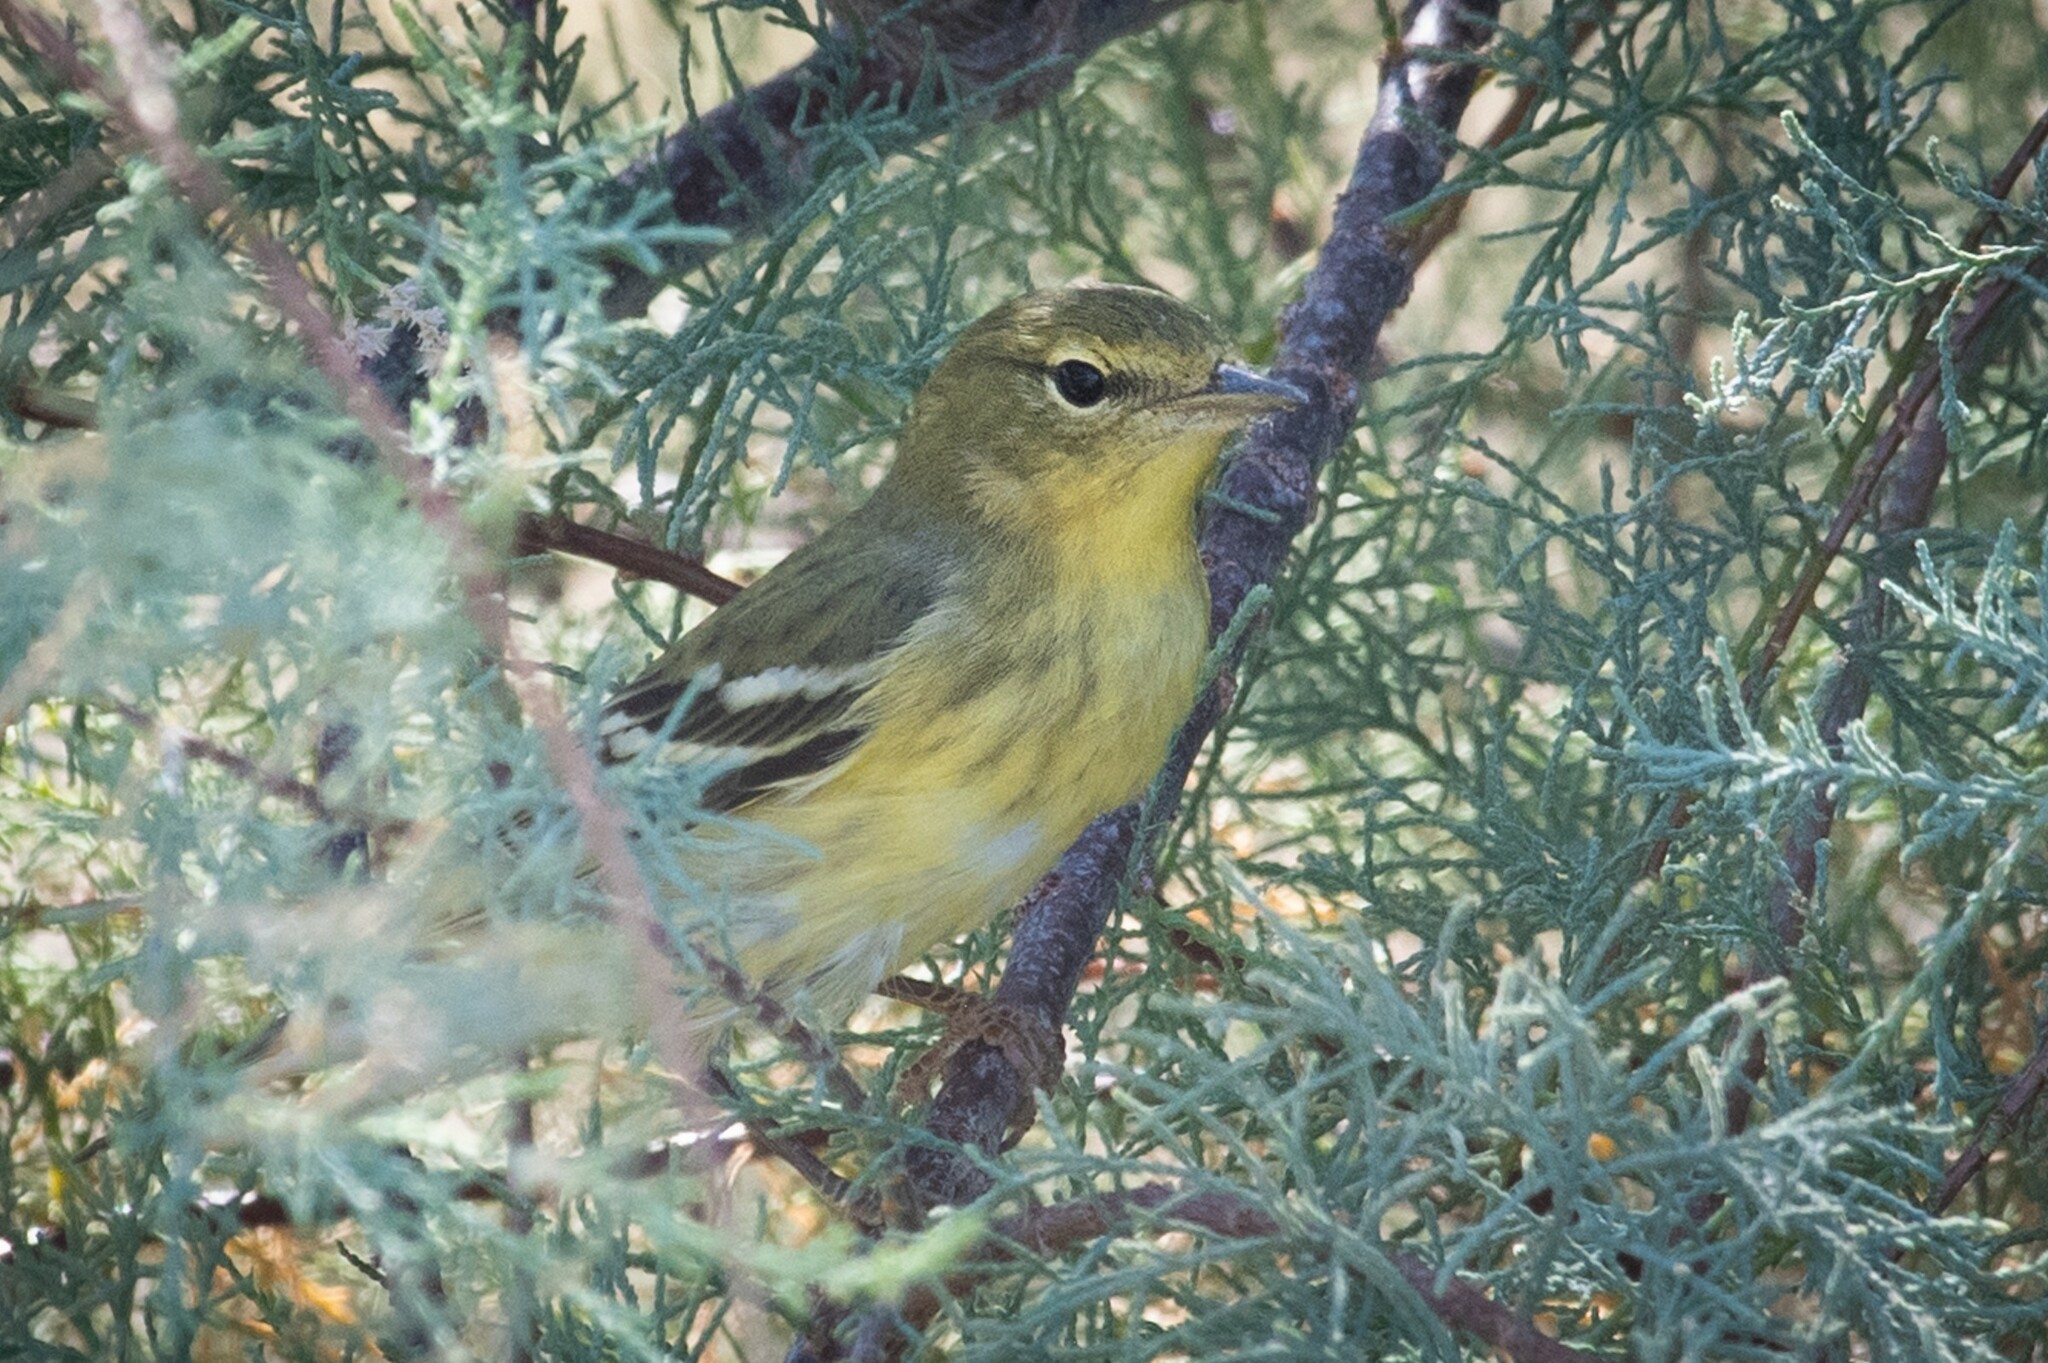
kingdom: Animalia
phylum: Chordata
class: Aves
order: Passeriformes
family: Parulidae
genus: Setophaga
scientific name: Setophaga striata
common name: Blackpoll warbler
